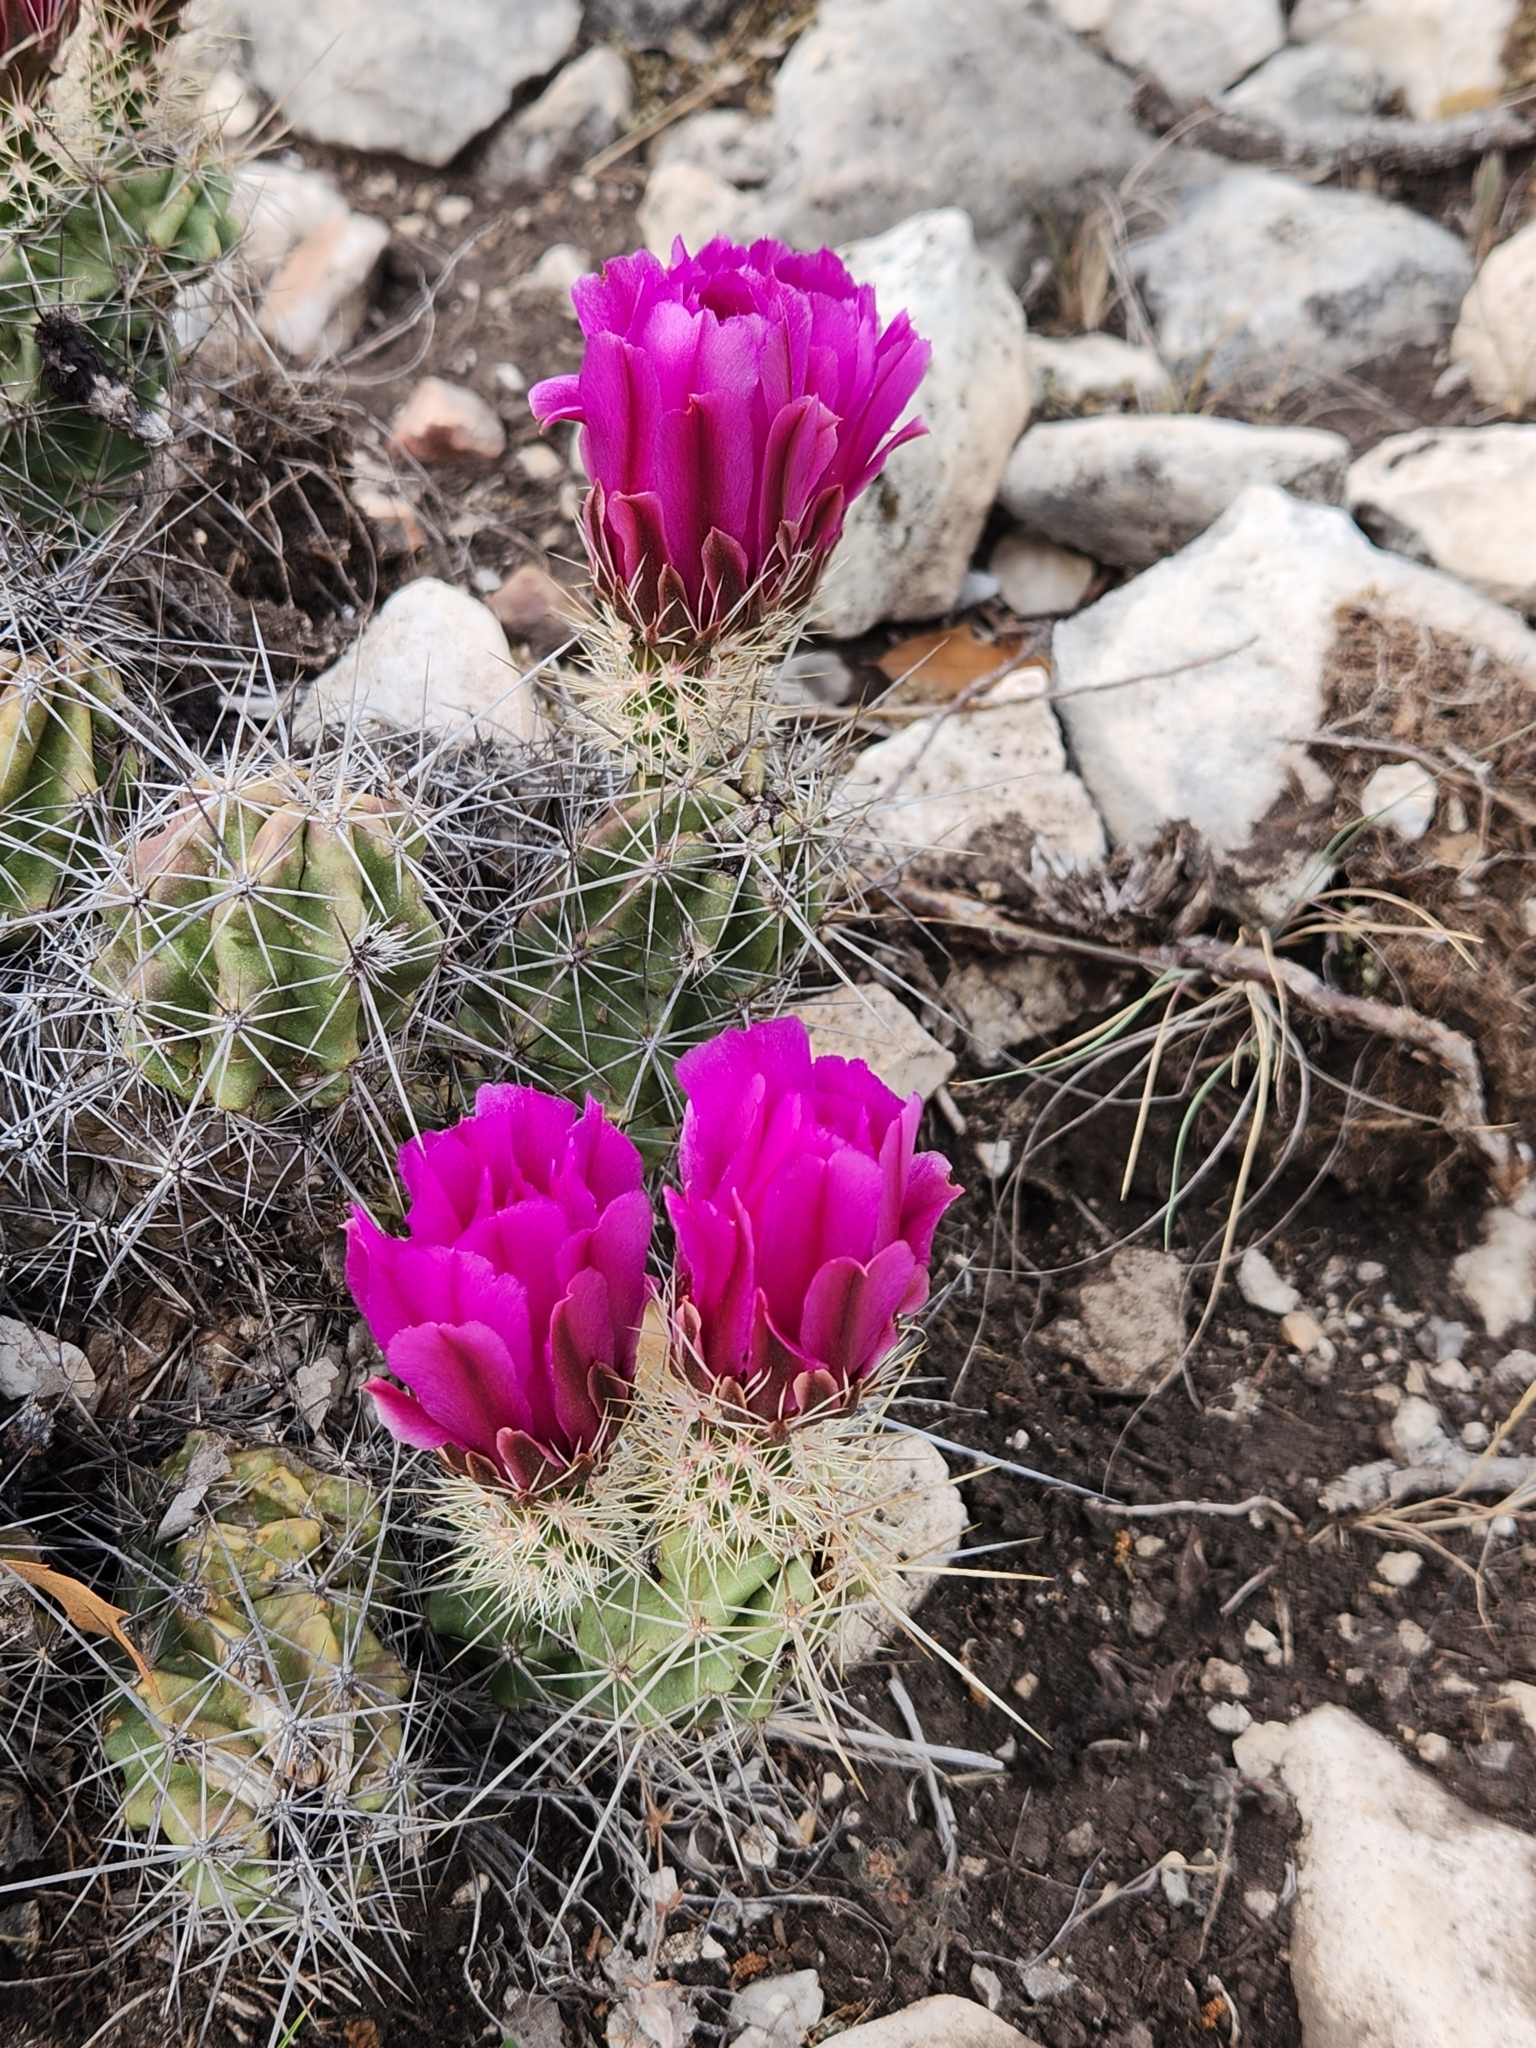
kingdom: Plantae
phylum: Tracheophyta
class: Magnoliopsida
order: Caryophyllales
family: Cactaceae
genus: Echinocereus
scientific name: Echinocereus enneacanthus
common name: Pitaya
